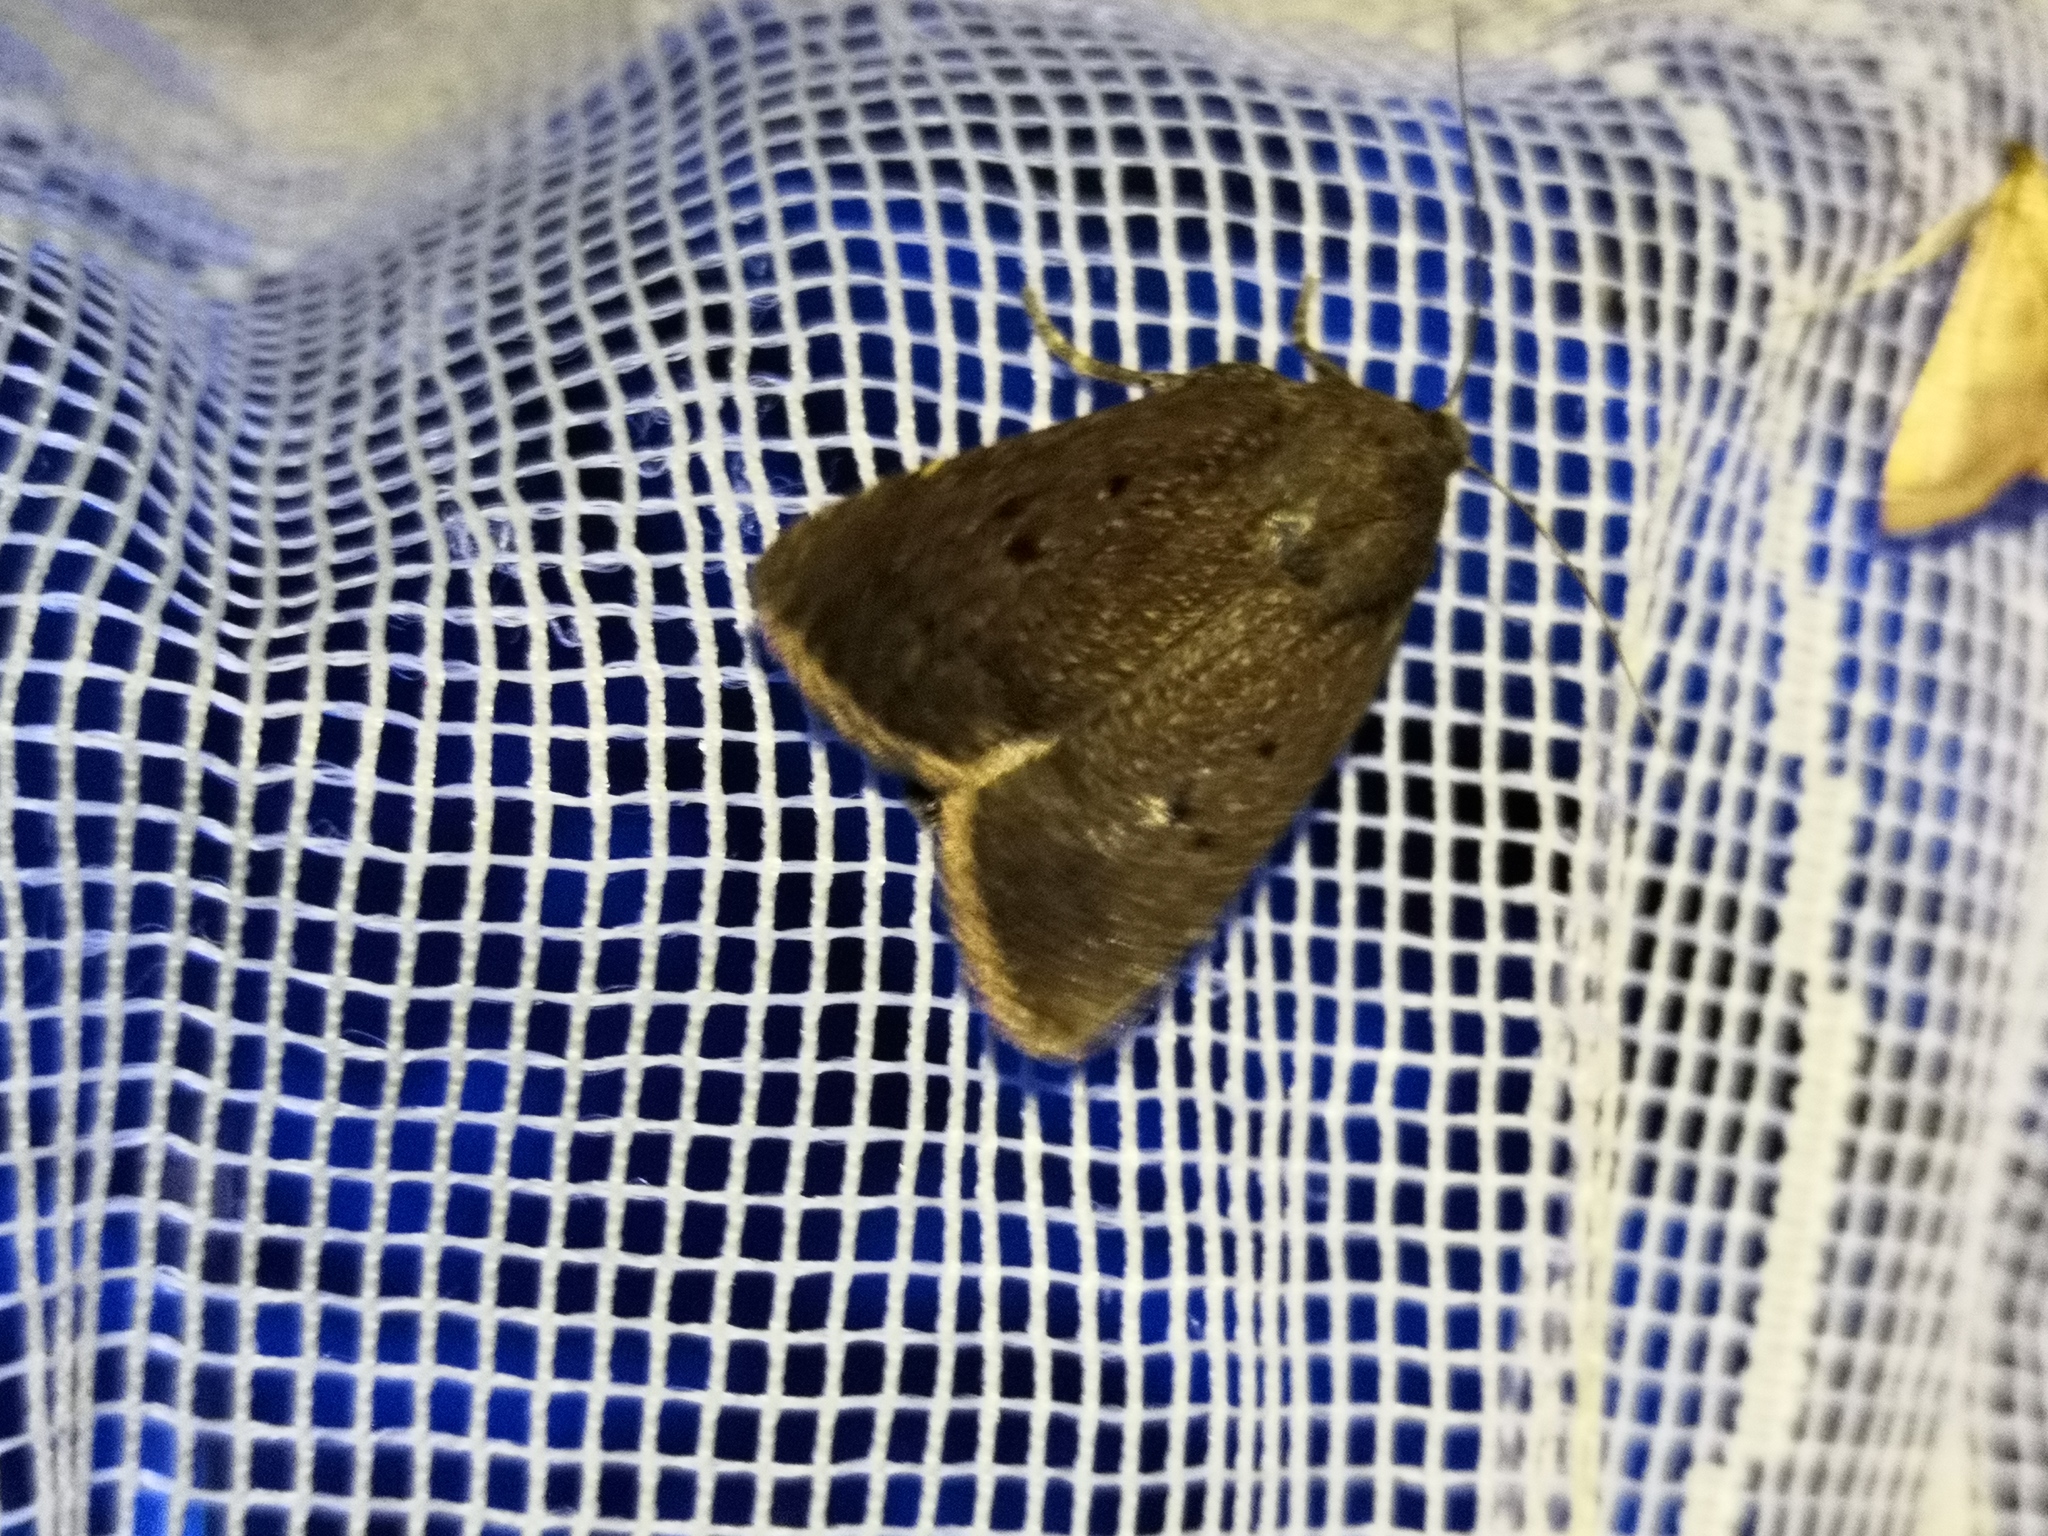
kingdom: Animalia
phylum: Arthropoda
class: Insecta
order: Lepidoptera
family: Noctuidae
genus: Amphipyra
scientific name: Amphipyra tragopoginis
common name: Mouse moth
